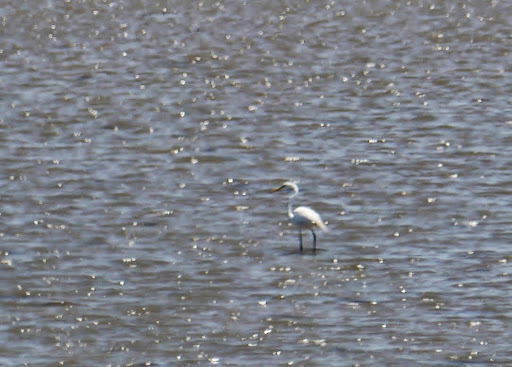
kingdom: Animalia
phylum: Chordata
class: Aves
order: Pelecaniformes
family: Ardeidae
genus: Ardea
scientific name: Ardea alba
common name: Great egret
